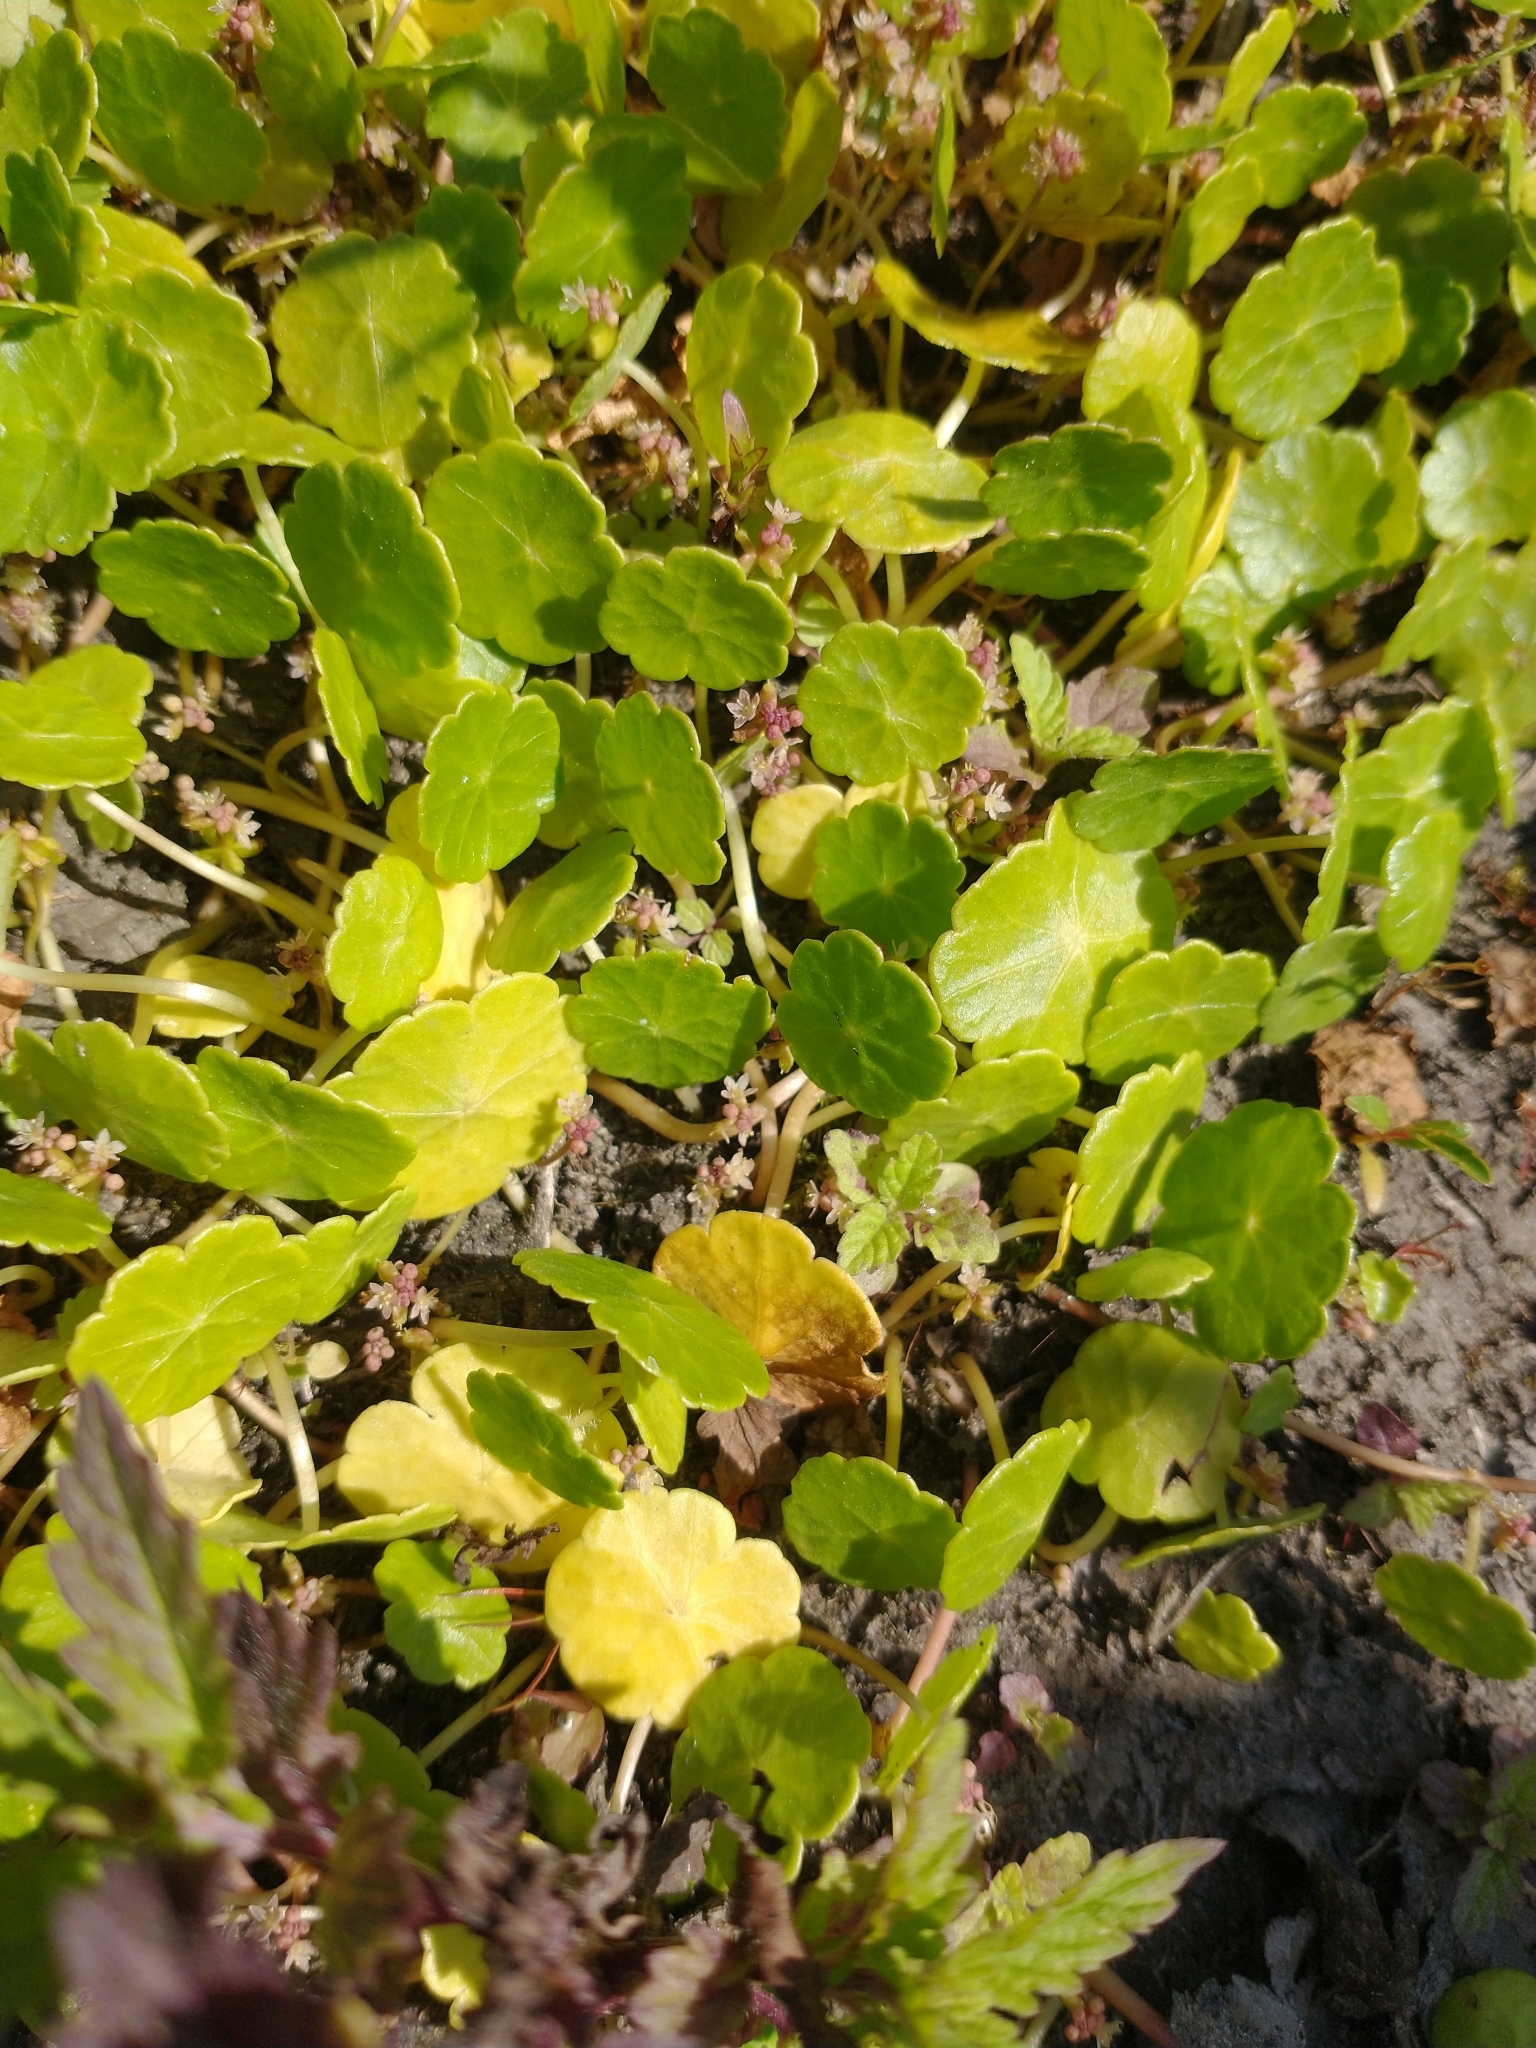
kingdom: Plantae
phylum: Tracheophyta
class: Magnoliopsida
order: Apiales
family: Araliaceae
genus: Hydrocotyle
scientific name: Hydrocotyle vulgaris
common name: Marsh pennywort
